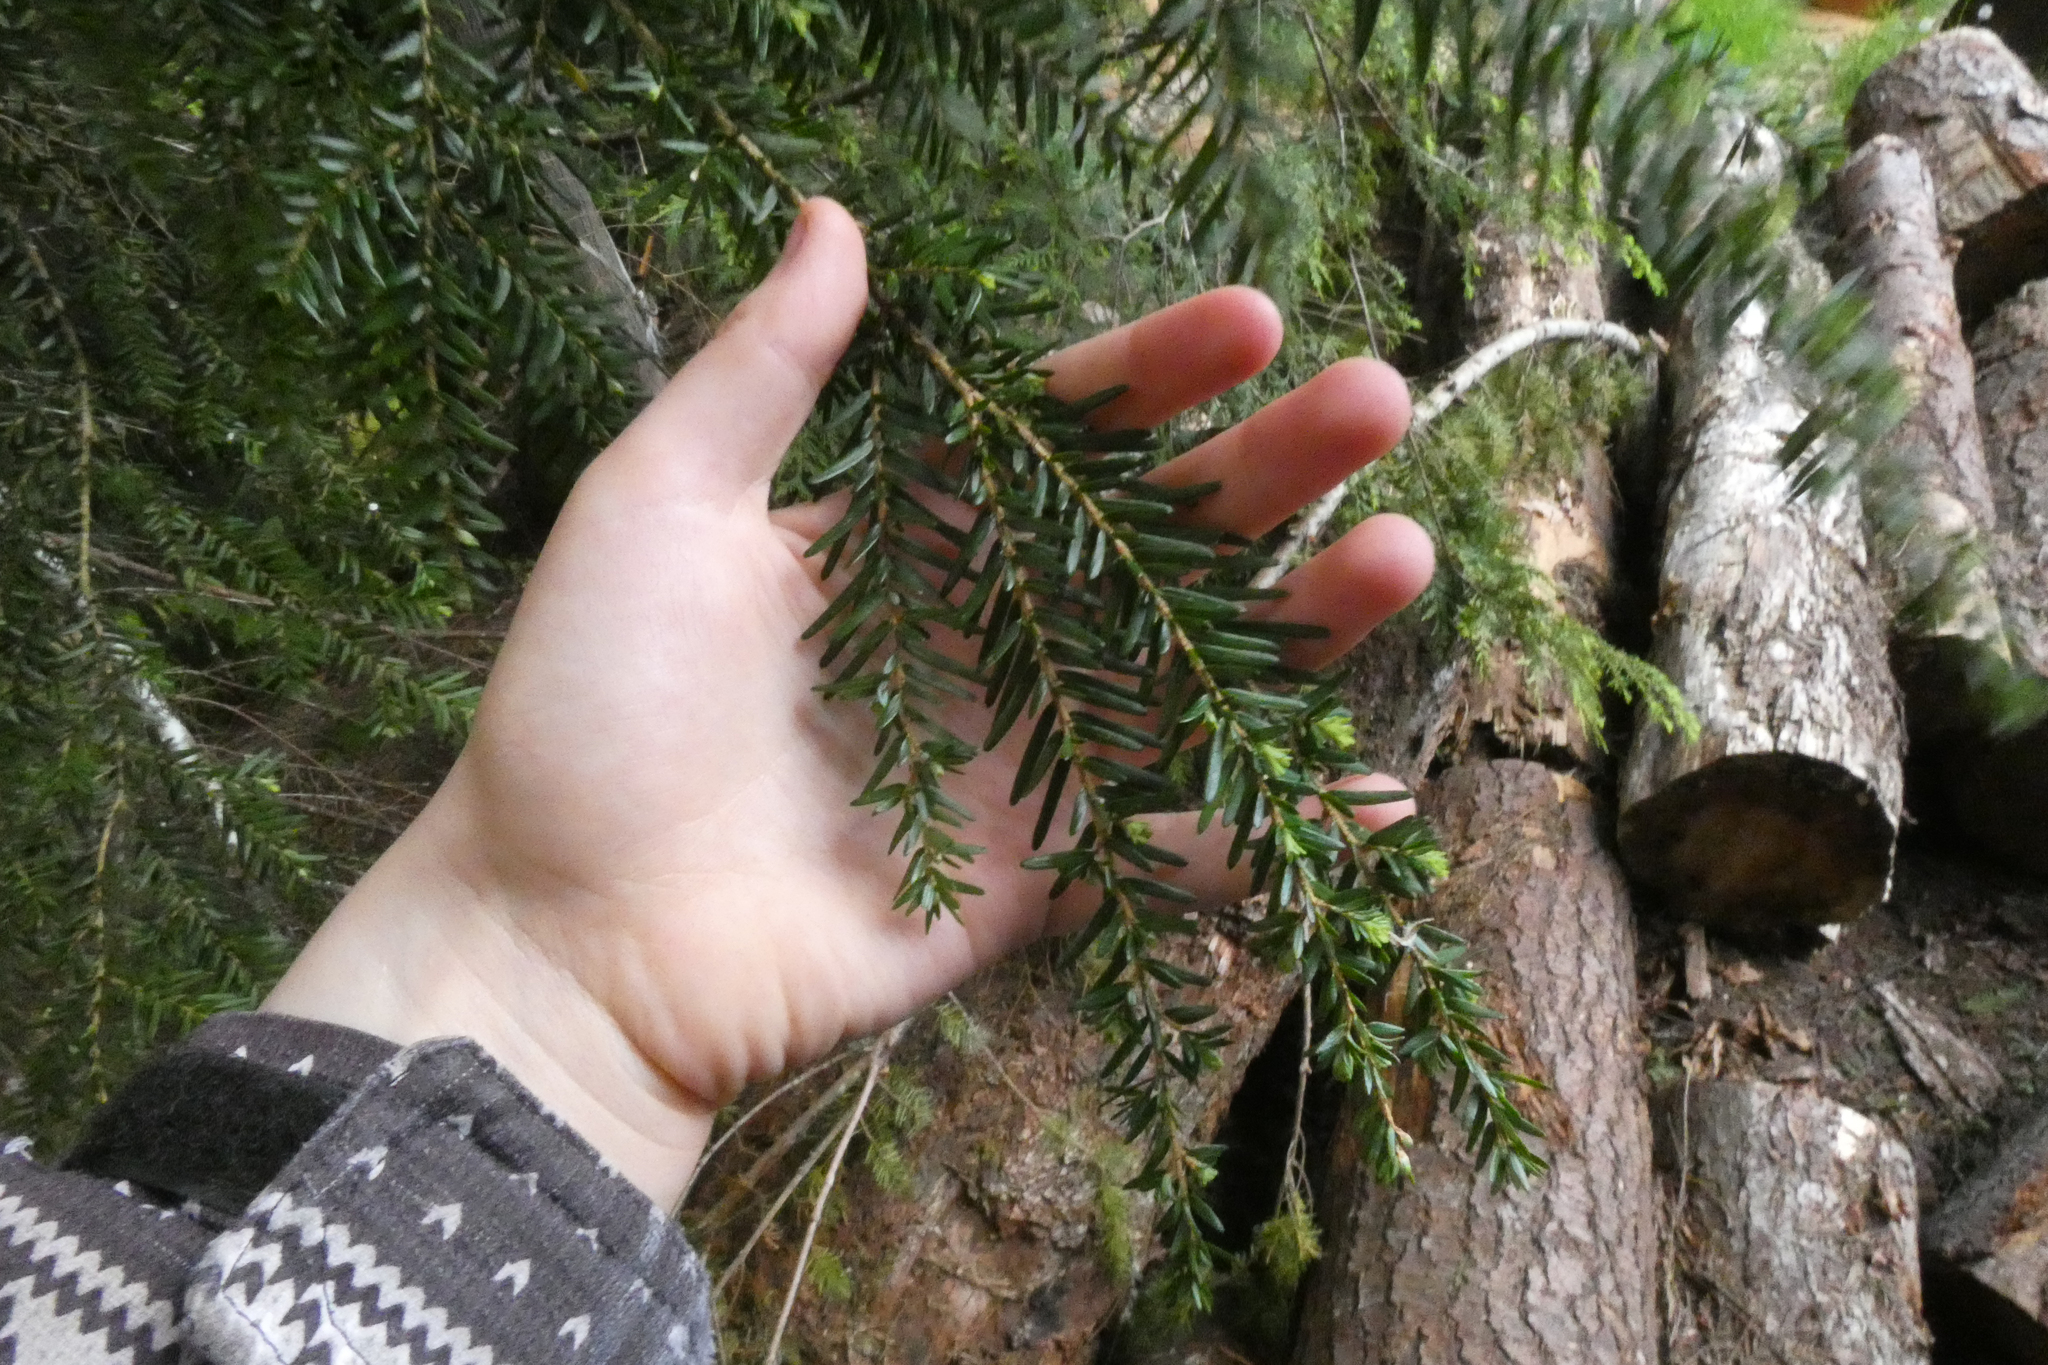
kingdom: Plantae
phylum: Tracheophyta
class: Pinopsida
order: Pinales
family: Pinaceae
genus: Tsuga
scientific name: Tsuga heterophylla
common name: Western hemlock
